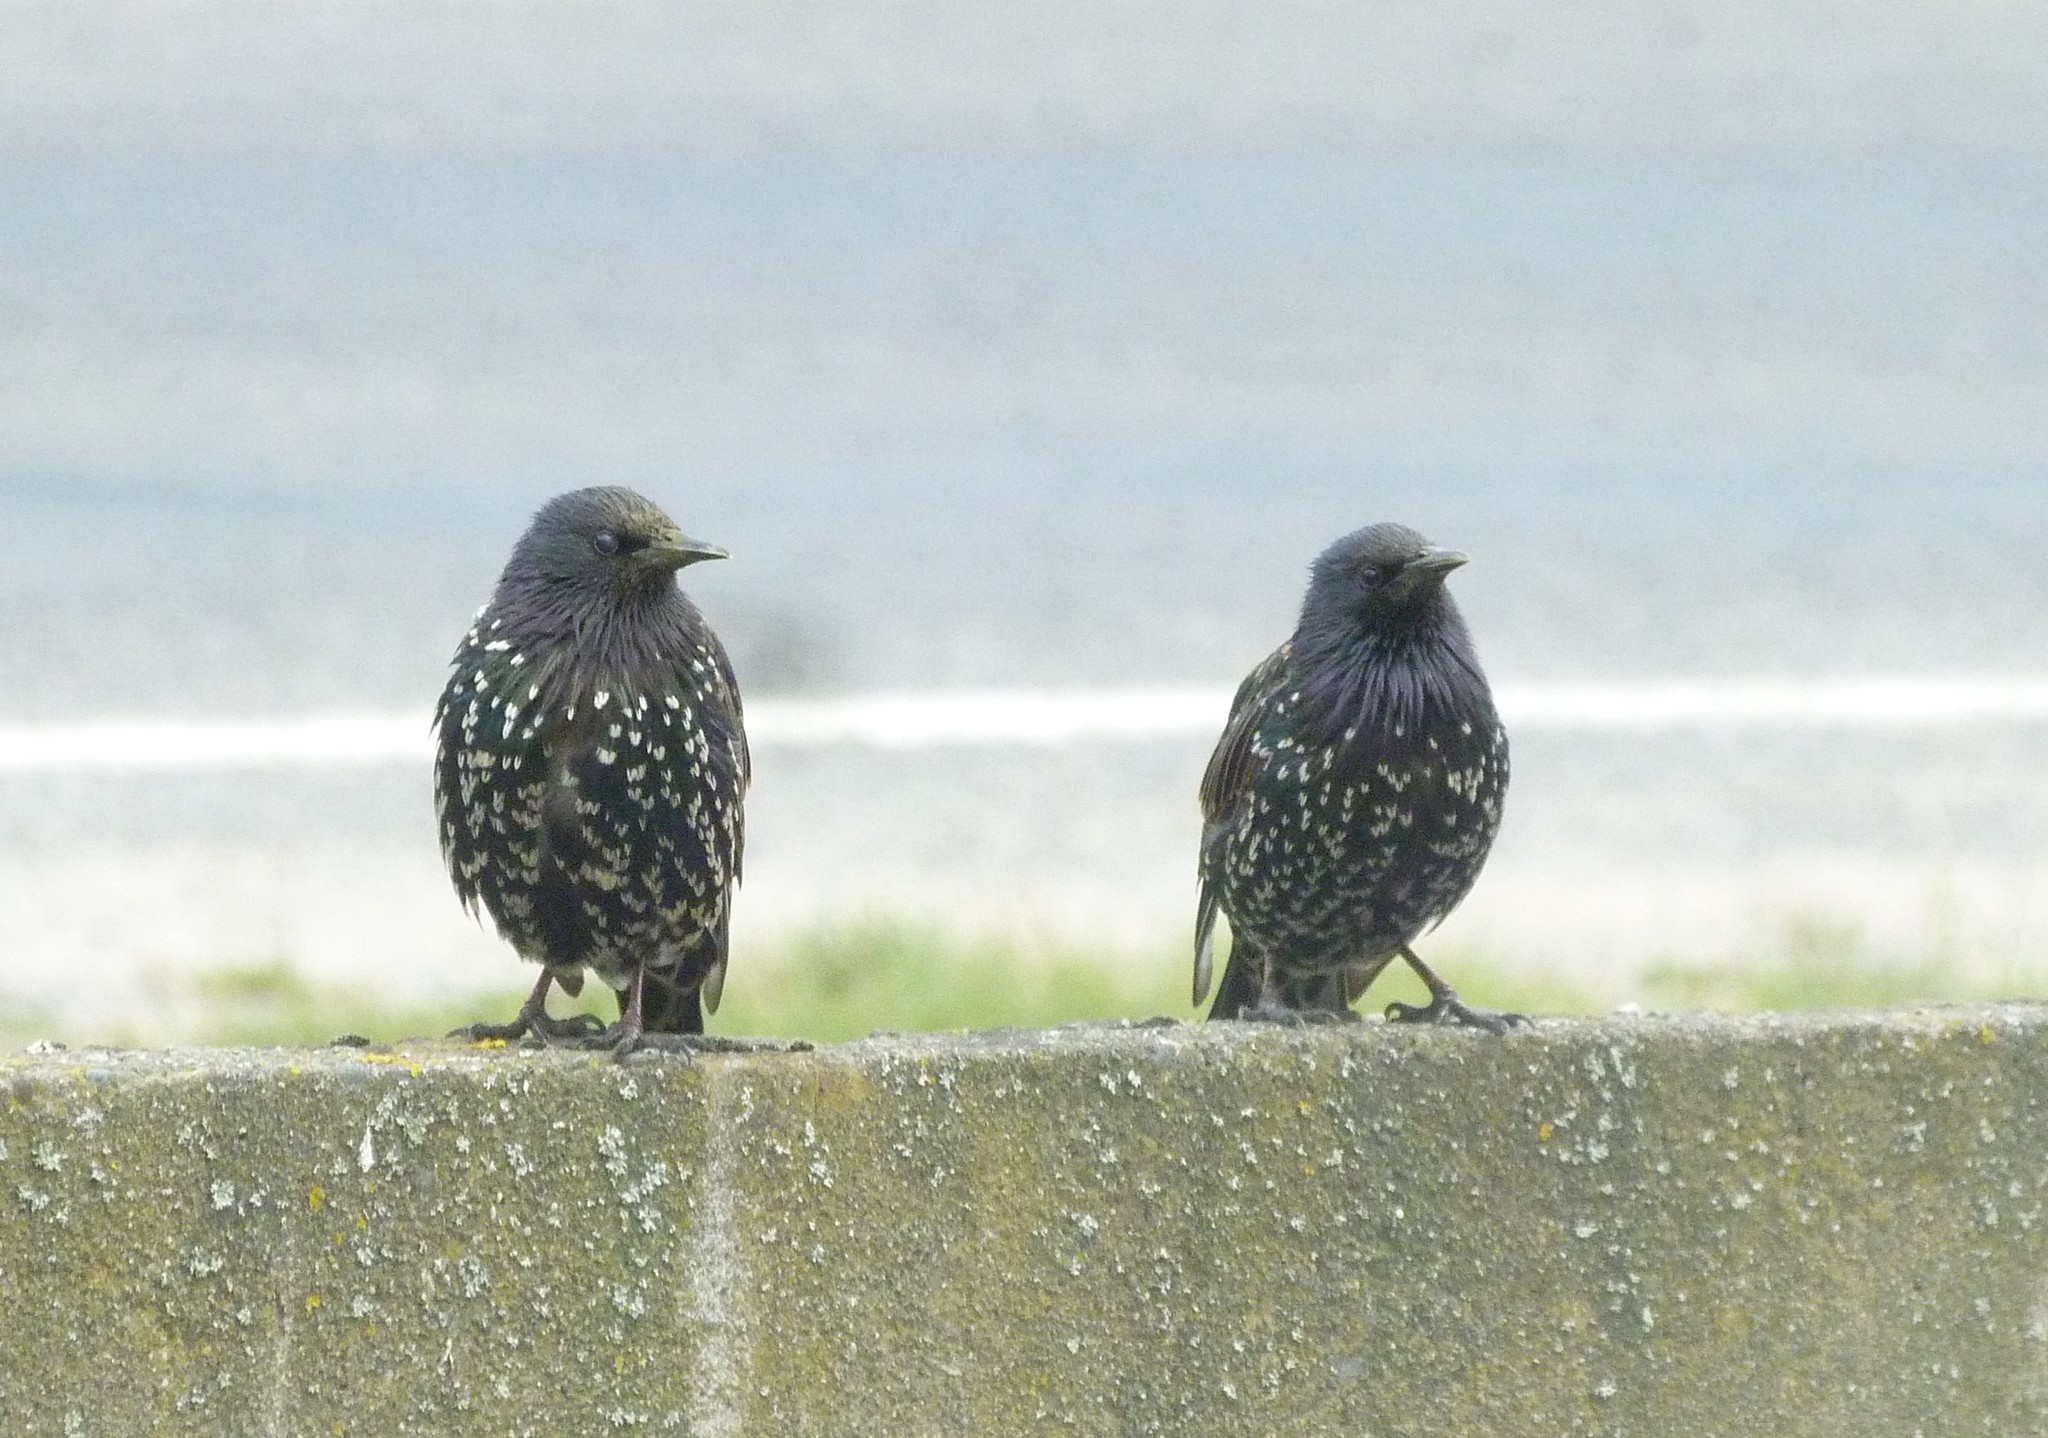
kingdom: Animalia
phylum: Chordata
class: Aves
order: Passeriformes
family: Sturnidae
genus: Sturnus
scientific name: Sturnus vulgaris
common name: Common starling
